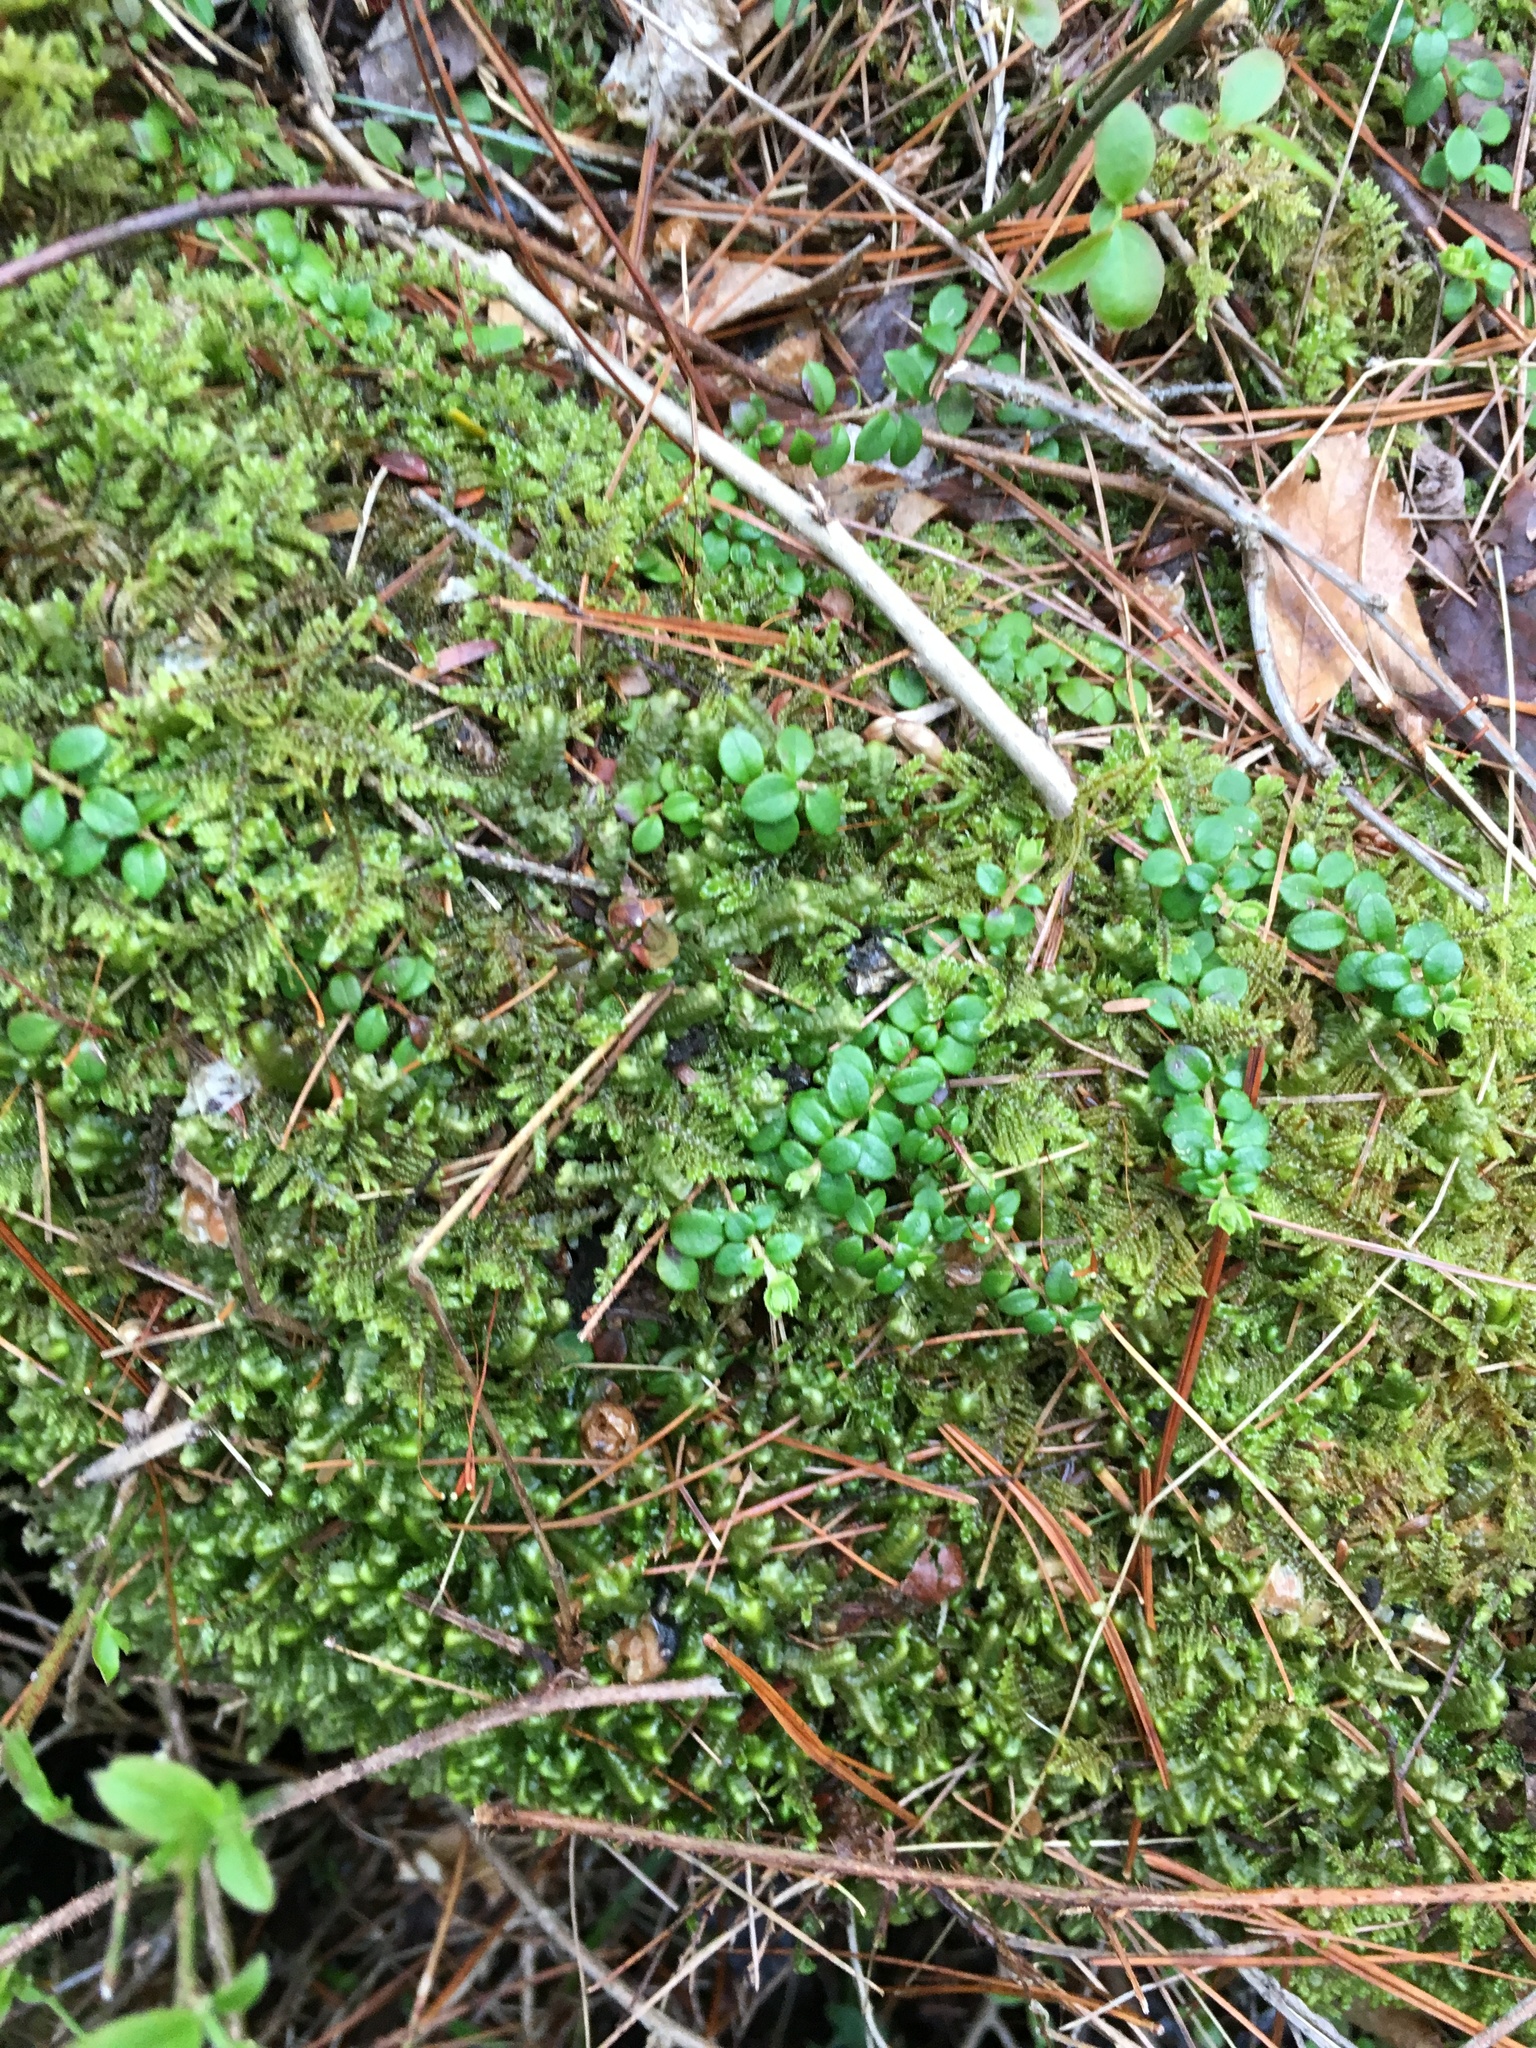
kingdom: Plantae
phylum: Tracheophyta
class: Magnoliopsida
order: Ericales
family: Ericaceae
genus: Gaultheria
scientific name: Gaultheria hispidula
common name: Cancer wintergreen
